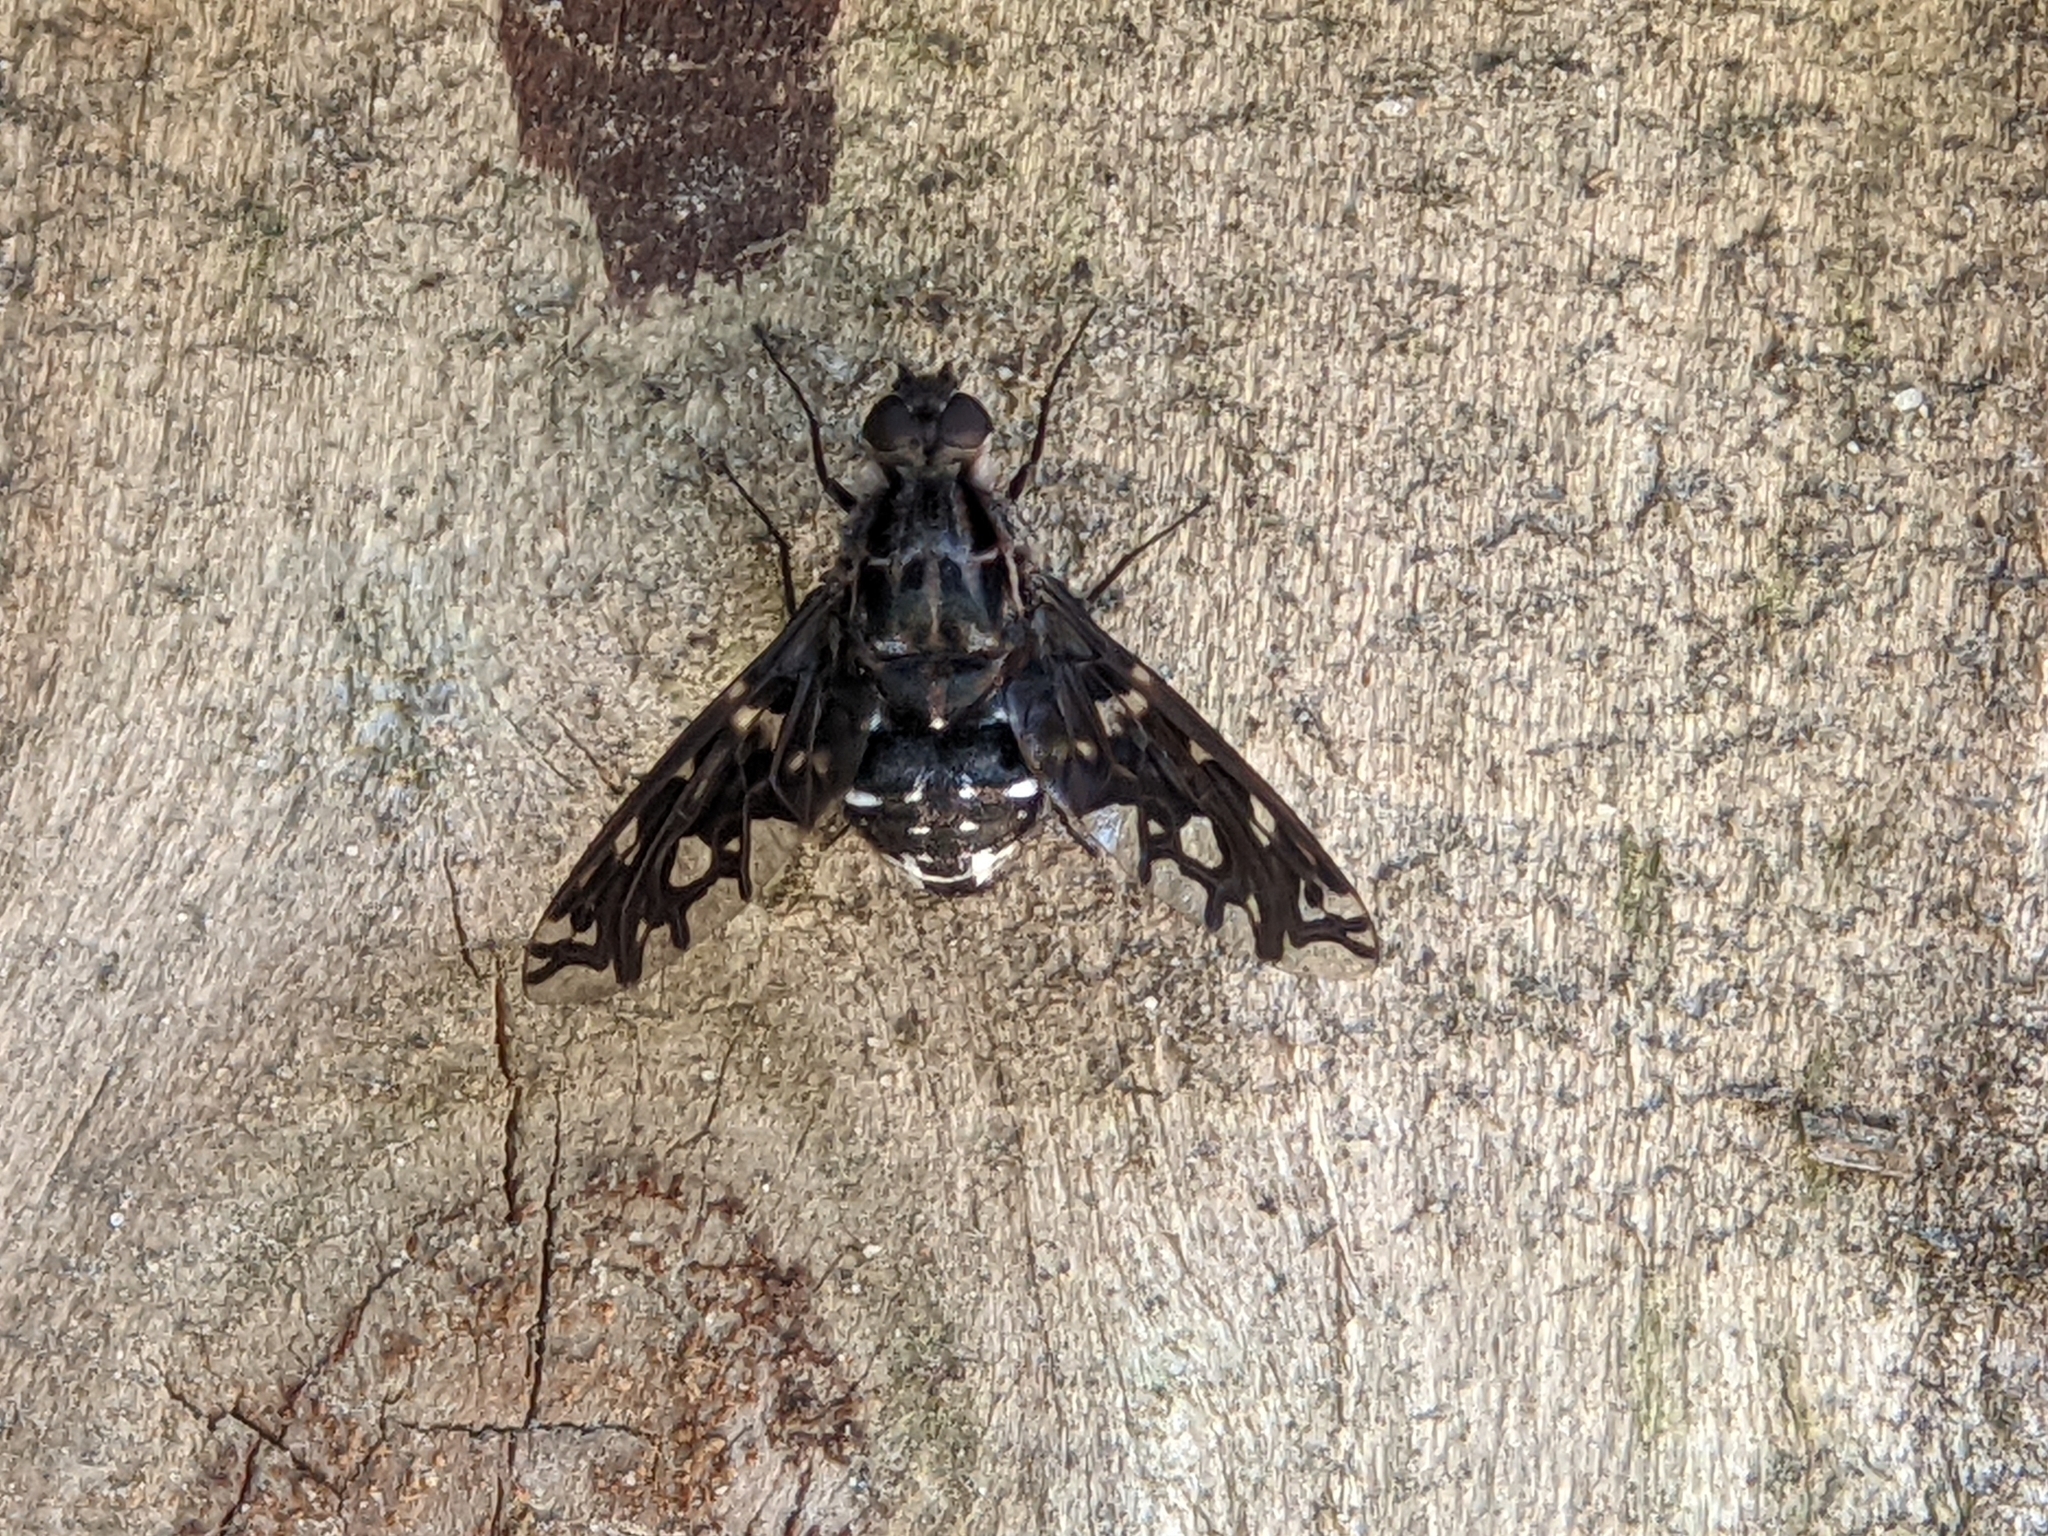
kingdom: Animalia
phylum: Arthropoda
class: Insecta
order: Diptera
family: Bombyliidae
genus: Xenox
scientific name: Xenox tigrinus
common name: Tiger bee fly
